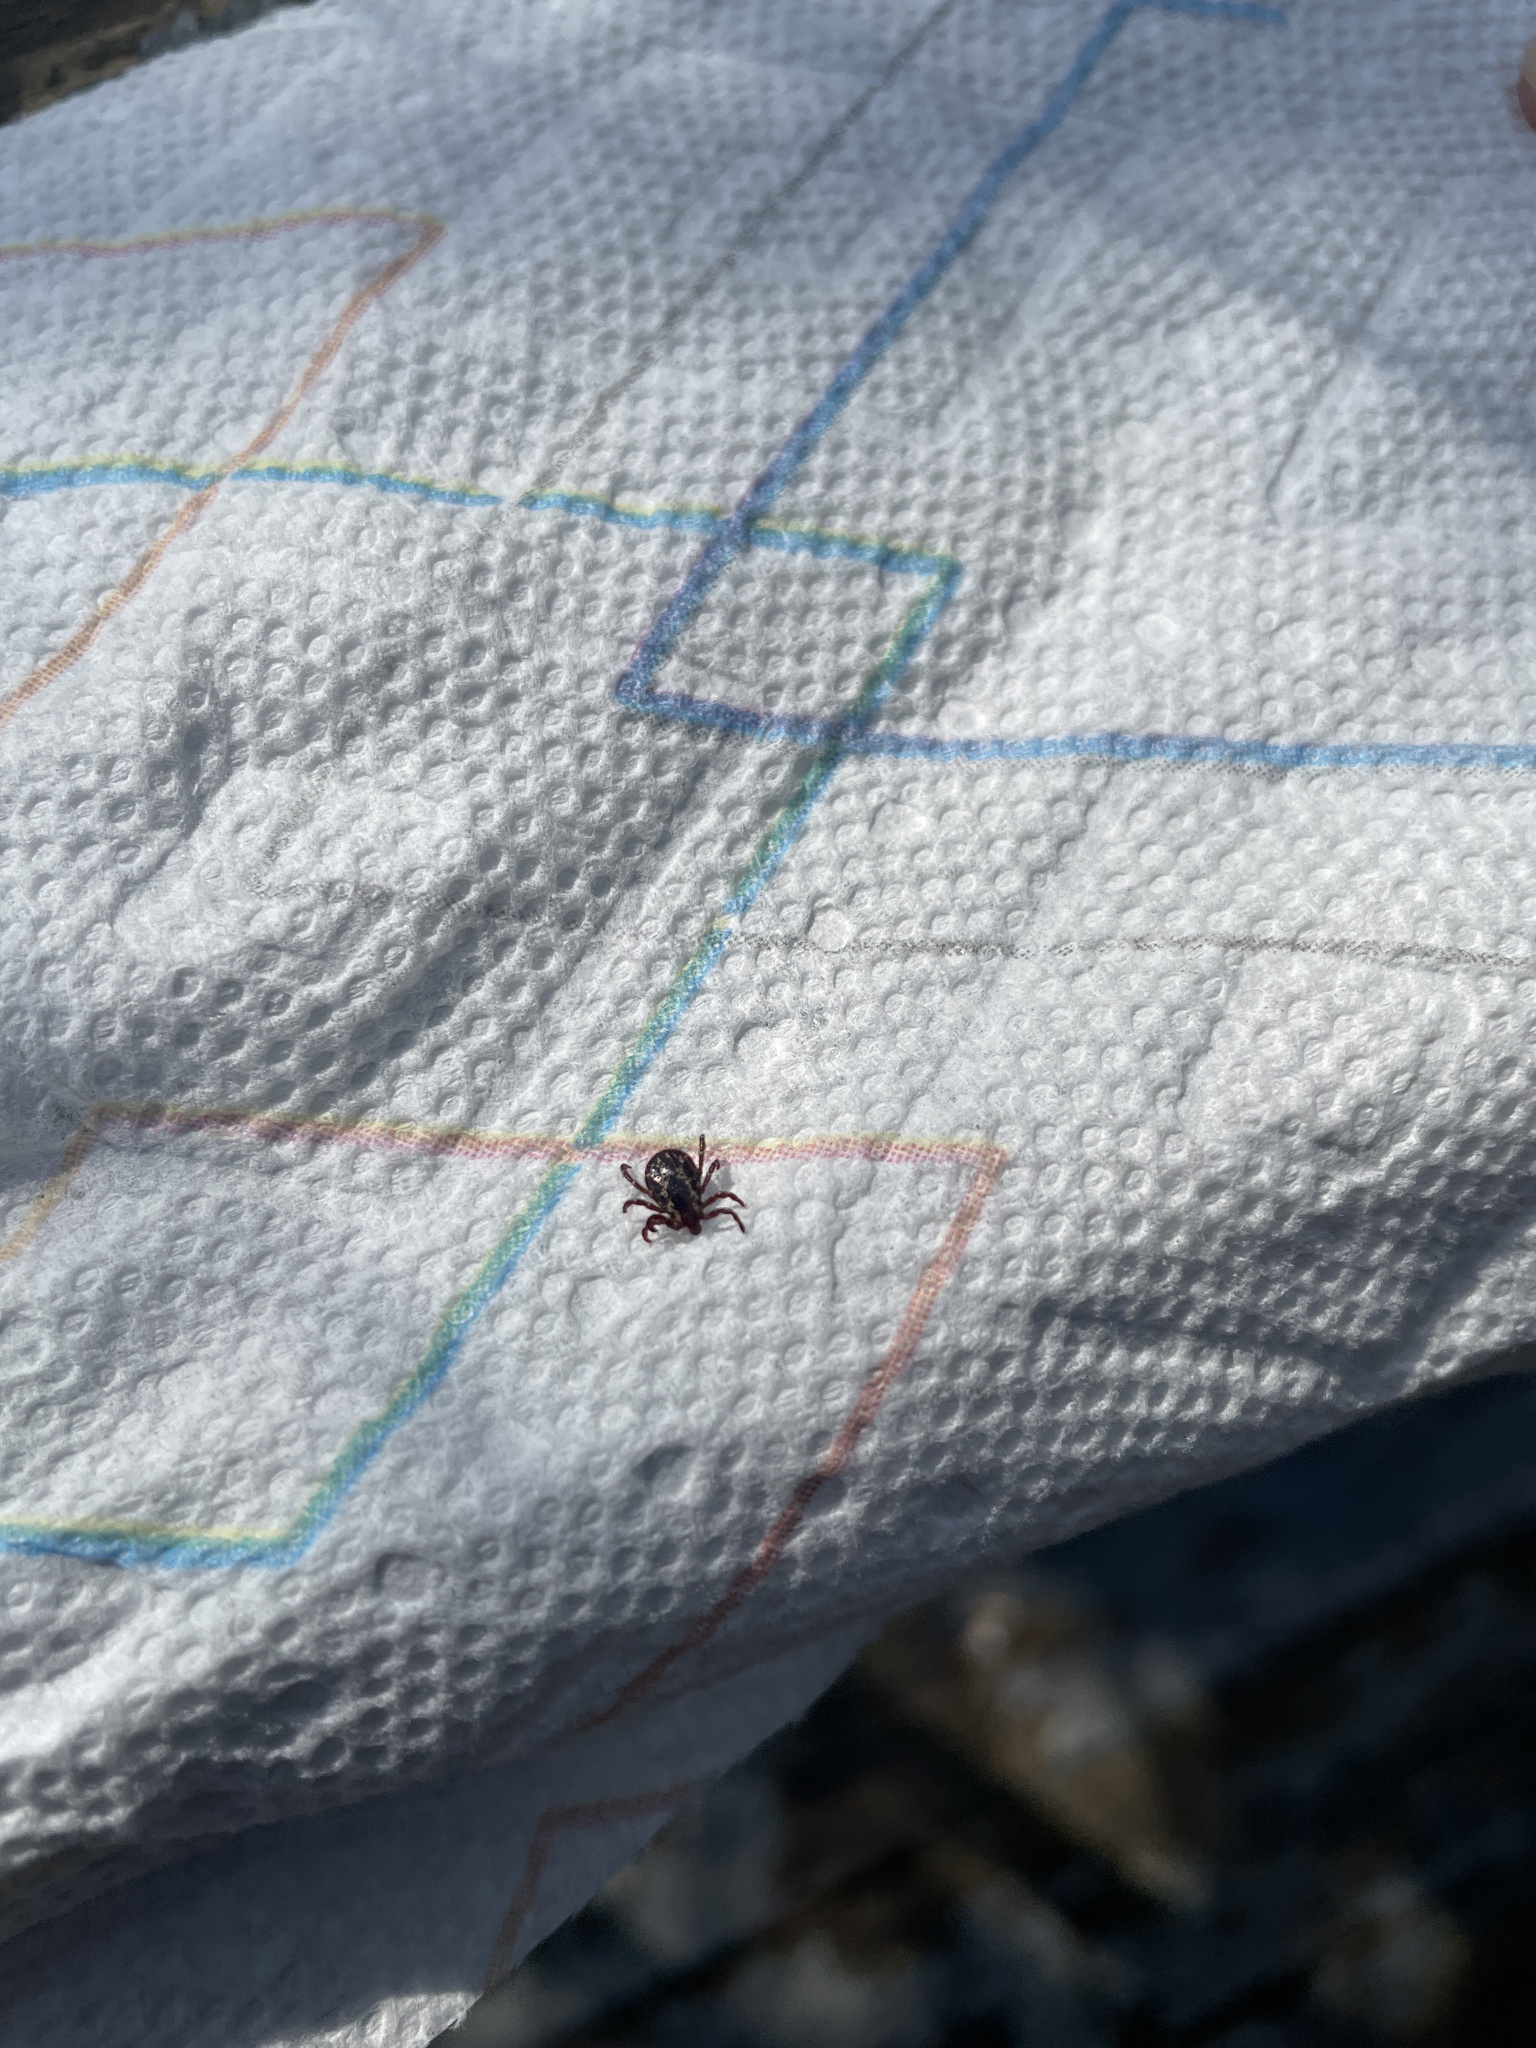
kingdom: Animalia
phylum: Arthropoda
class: Arachnida
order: Ixodida
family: Ixodidae
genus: Dermacentor
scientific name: Dermacentor variabilis
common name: American dog tick
